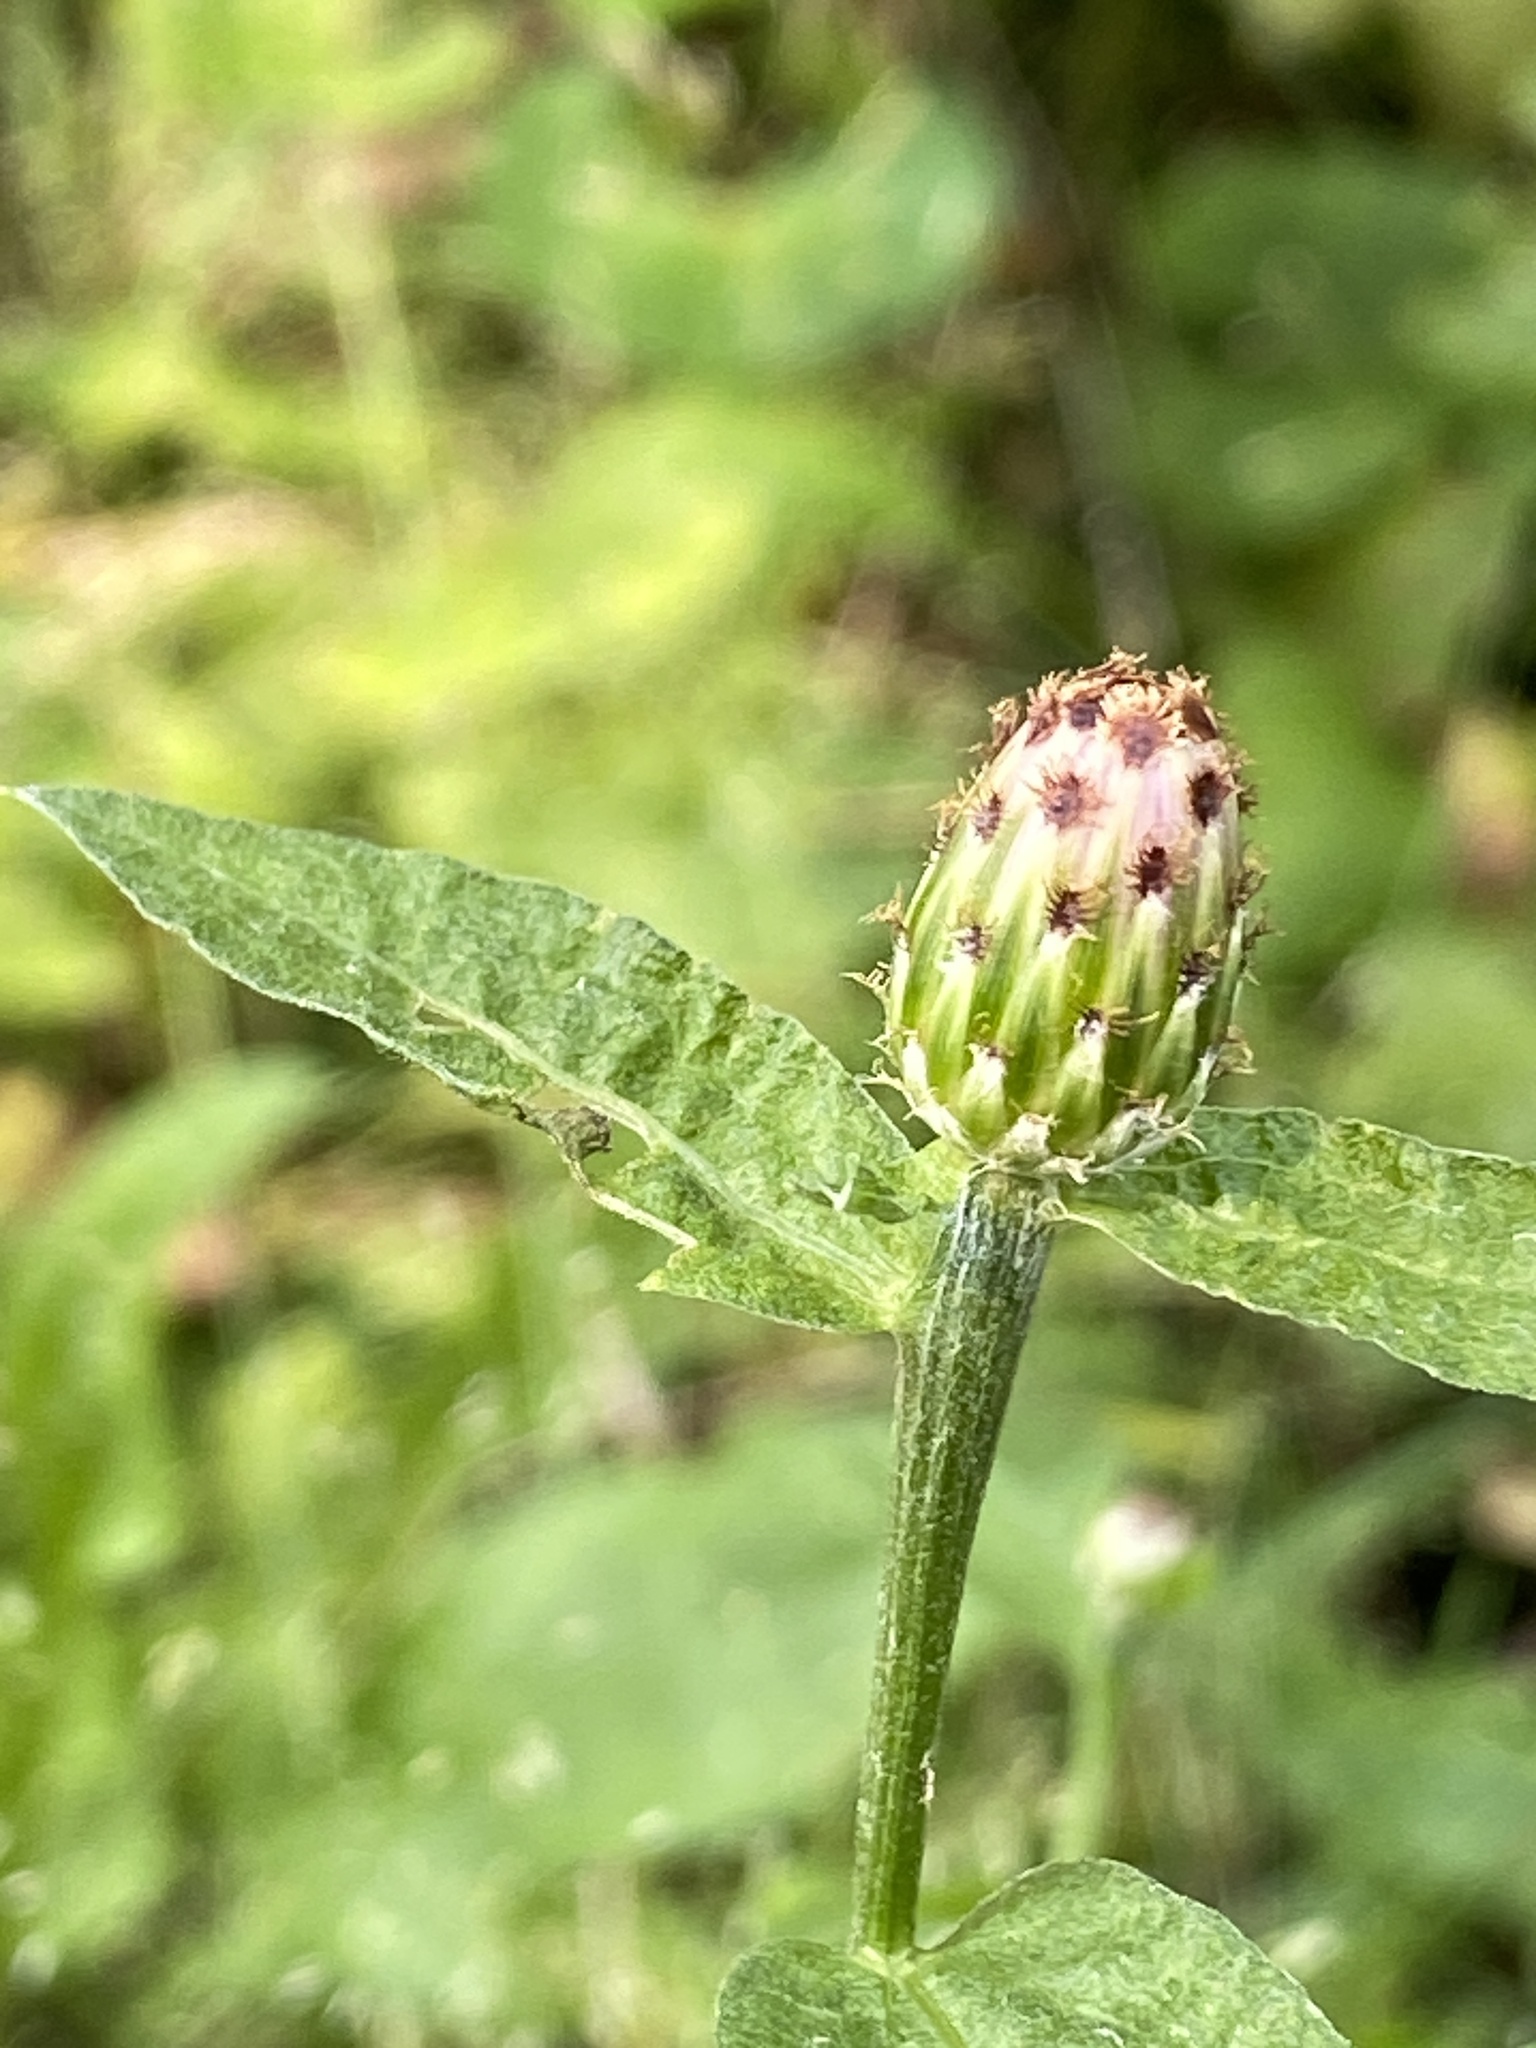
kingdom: Plantae
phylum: Tracheophyta
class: Magnoliopsida
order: Asterales
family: Asteraceae
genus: Centaurea
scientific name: Centaurea nigrescens
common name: Tyrol knapweed
